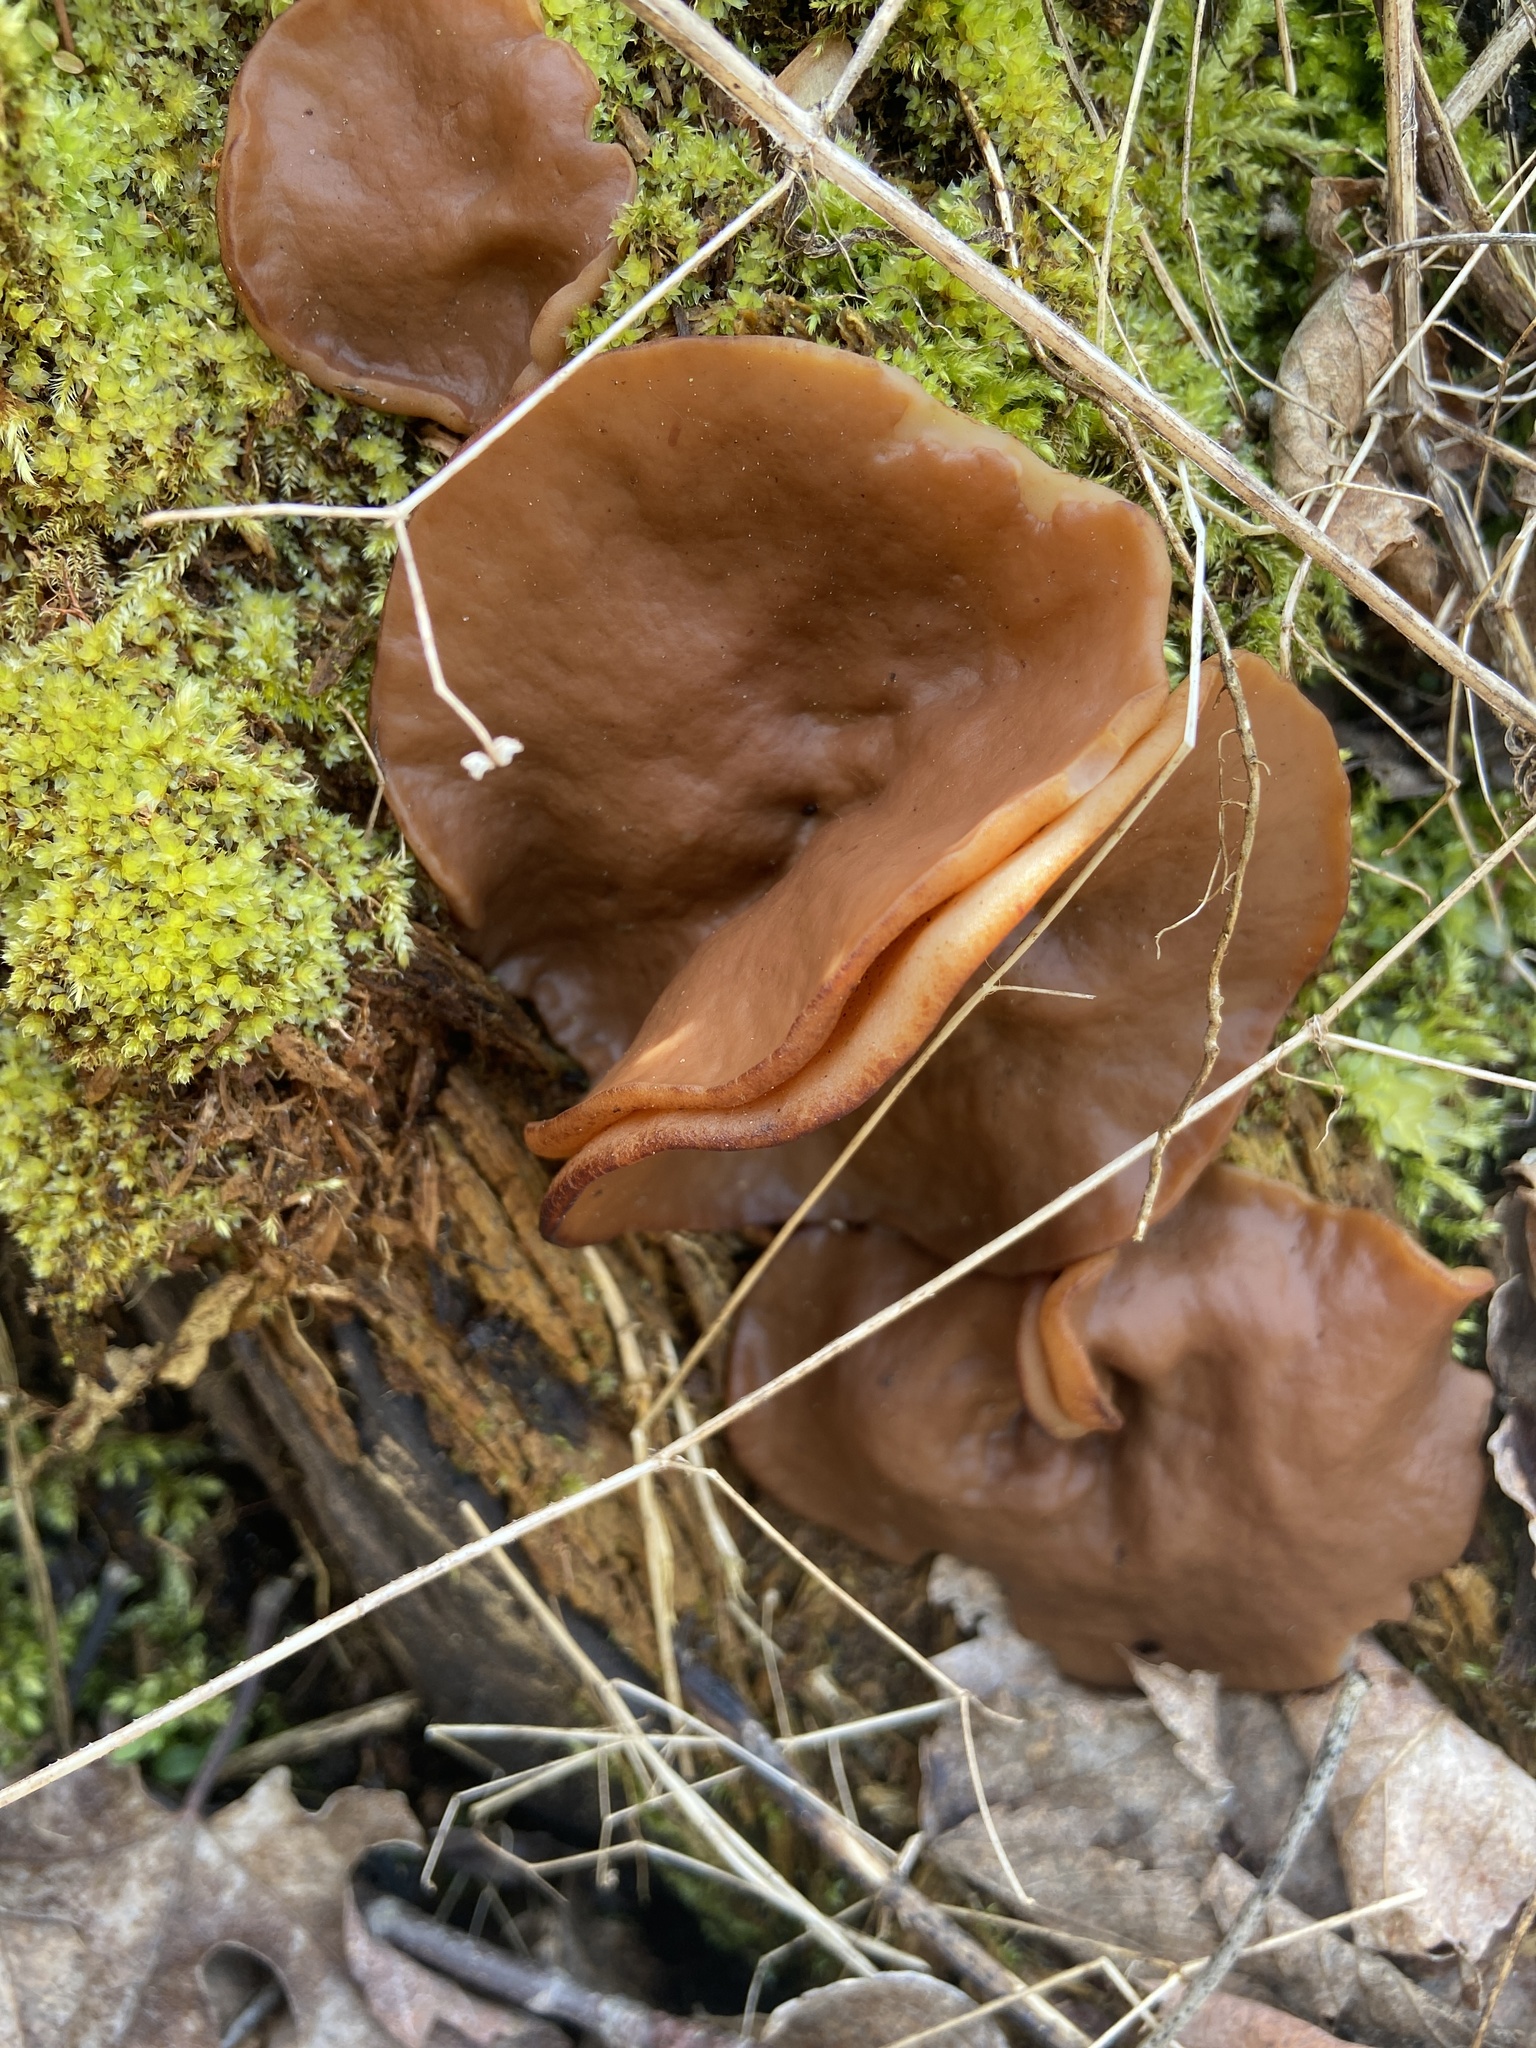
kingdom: Fungi
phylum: Ascomycota
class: Pezizomycetes
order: Pezizales
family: Discinaceae
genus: Discina
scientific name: Discina ancilis
